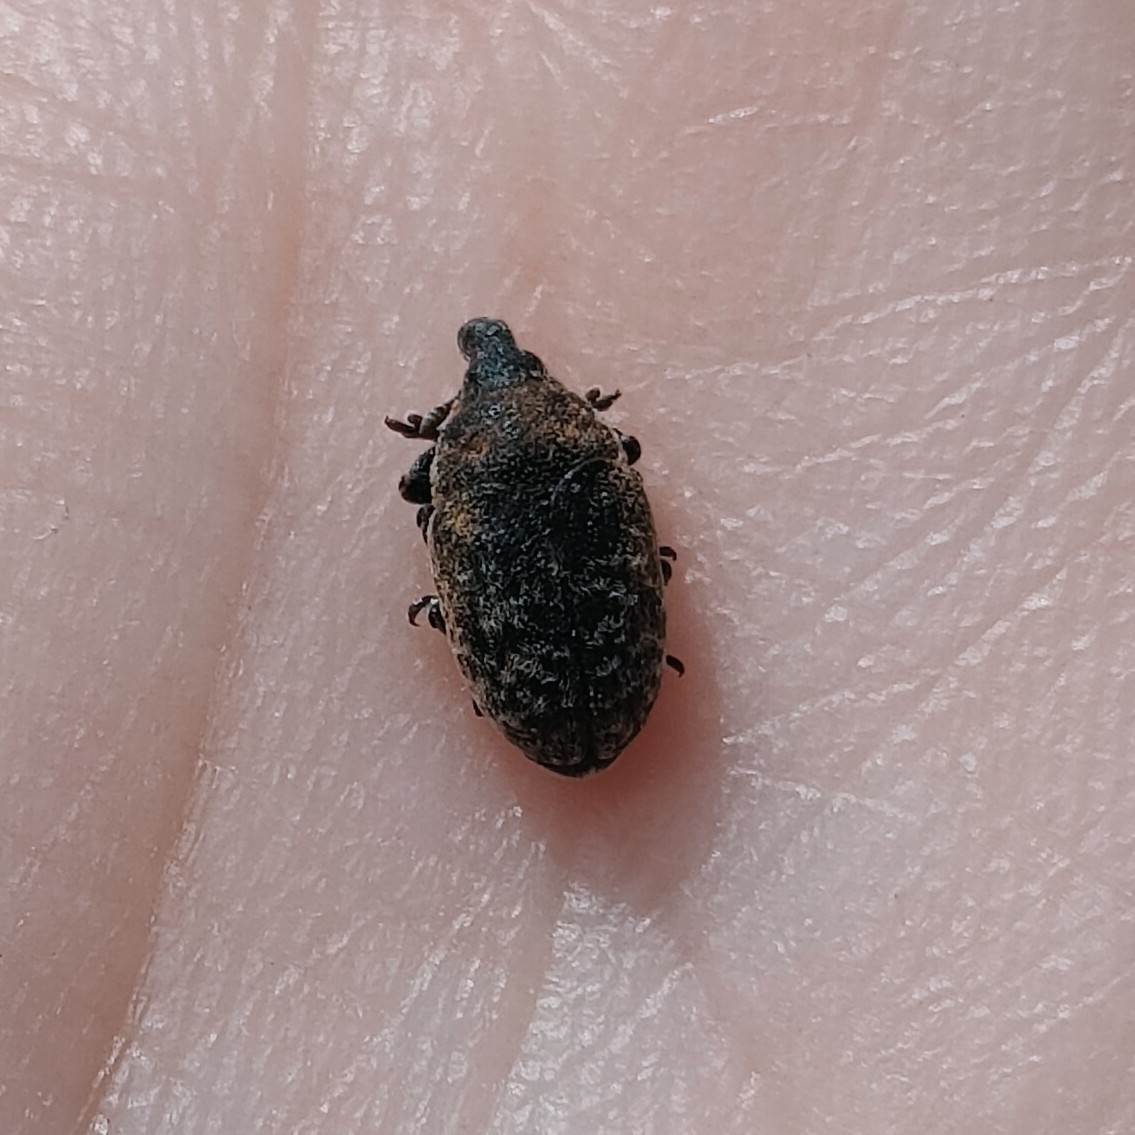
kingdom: Animalia
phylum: Arthropoda
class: Insecta
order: Coleoptera
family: Curculionidae
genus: Larinus
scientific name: Larinus obtusus
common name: Weevil
